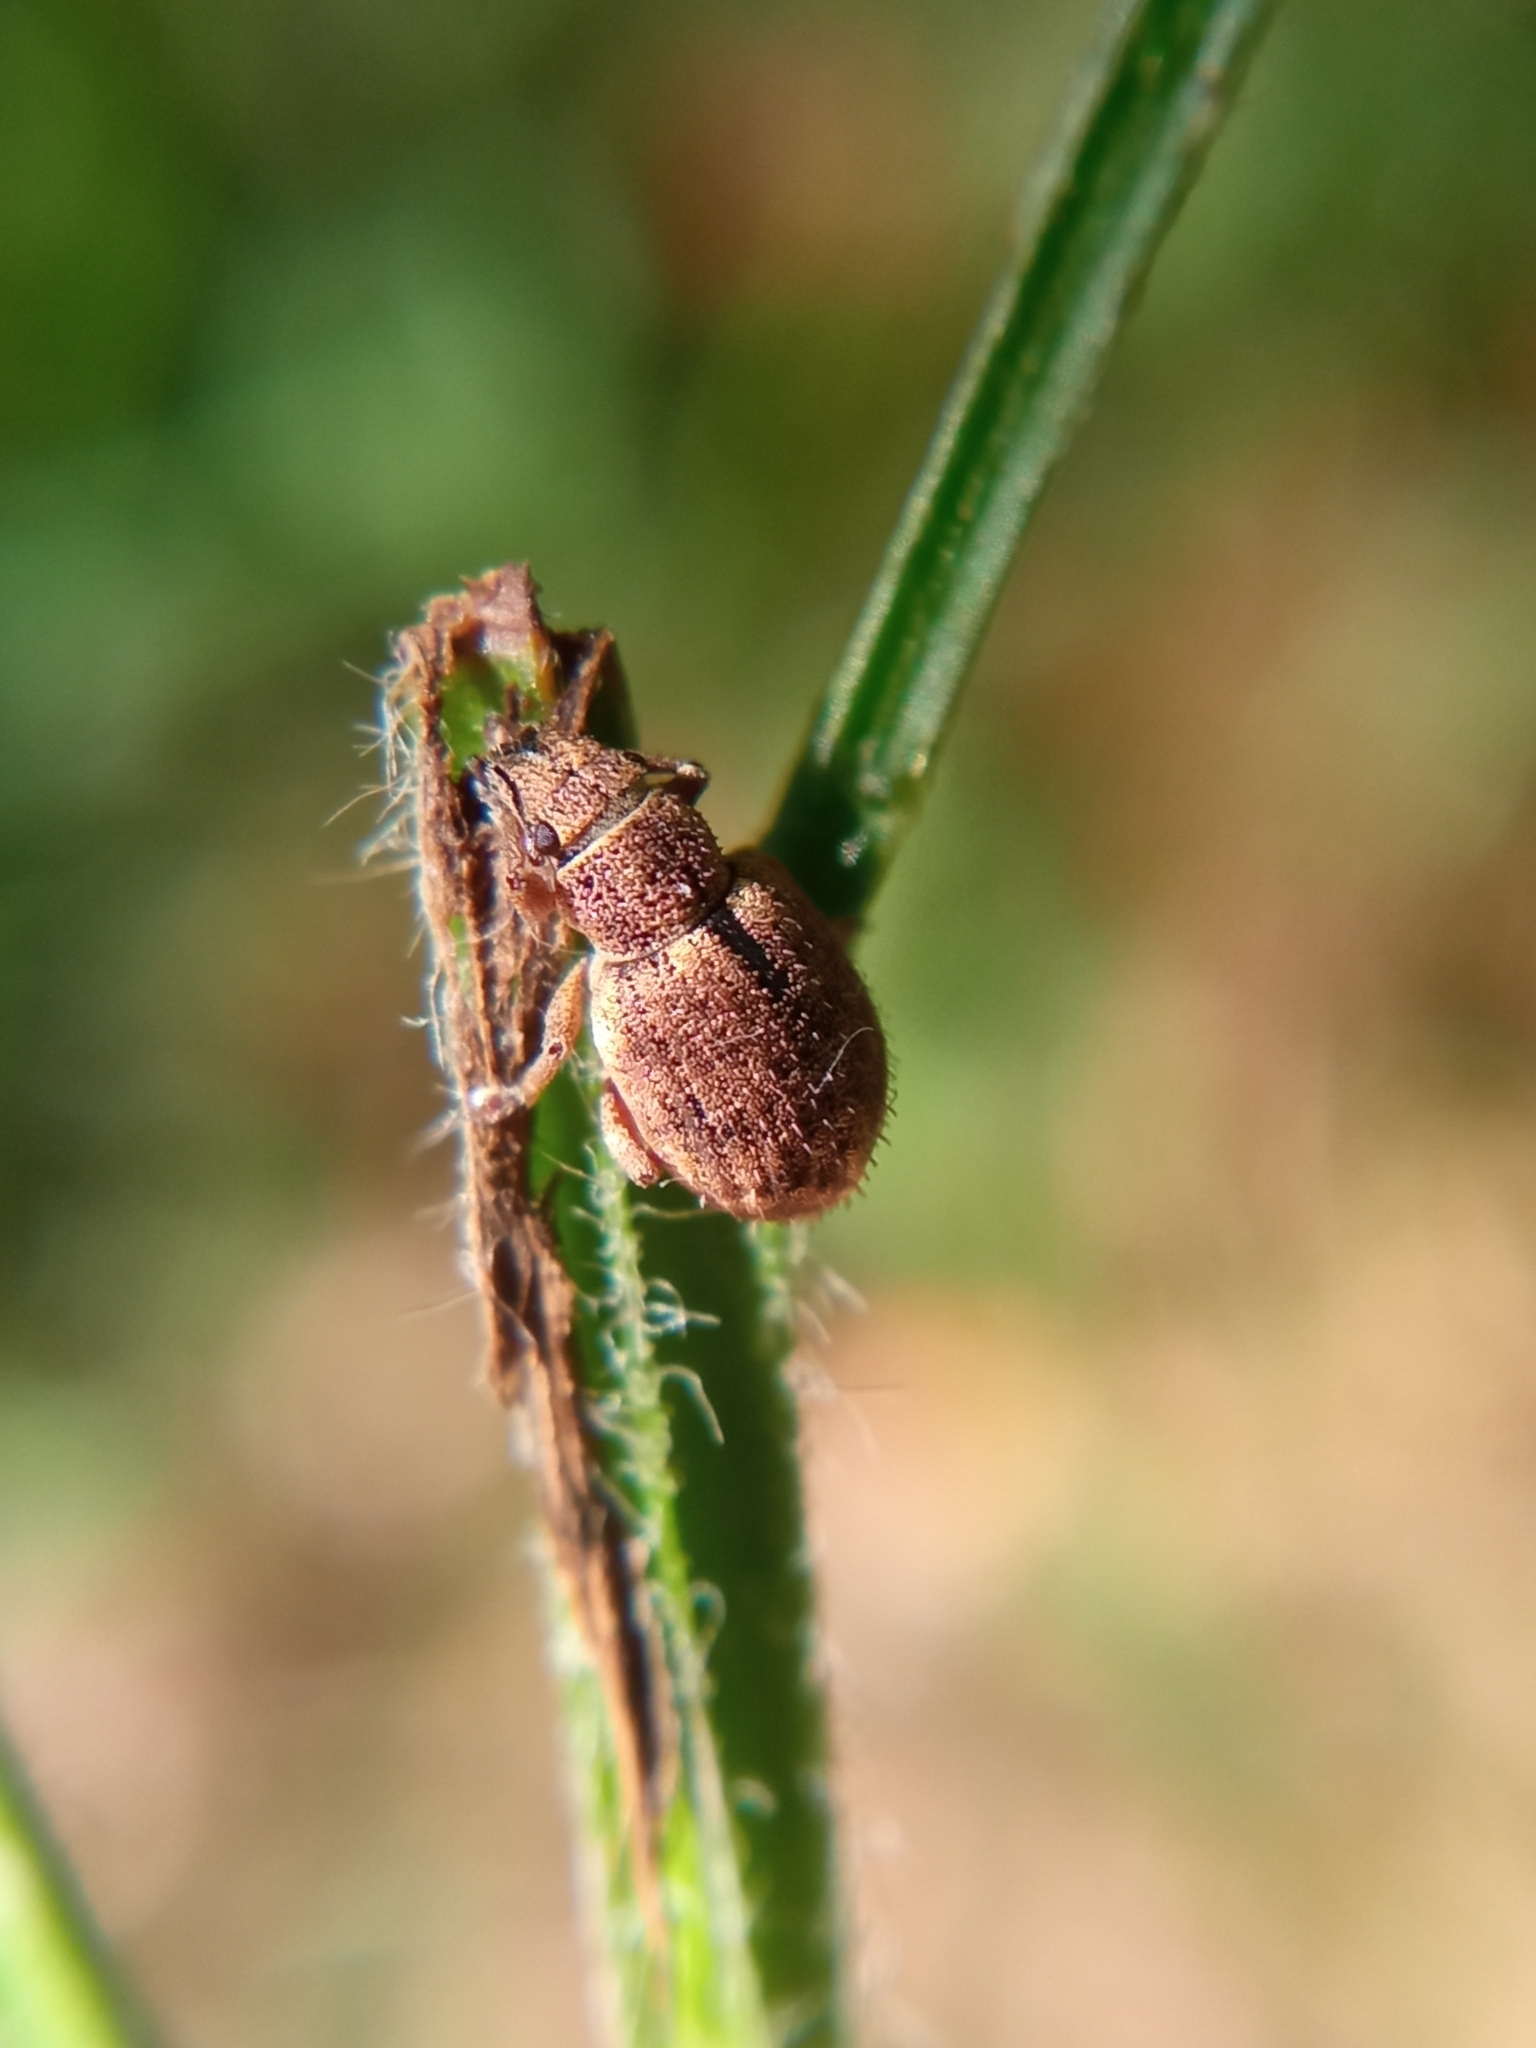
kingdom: Animalia
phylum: Arthropoda
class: Insecta
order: Coleoptera
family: Curculionidae
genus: Strophosoma
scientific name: Strophosoma melanogrammum
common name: Weevil
